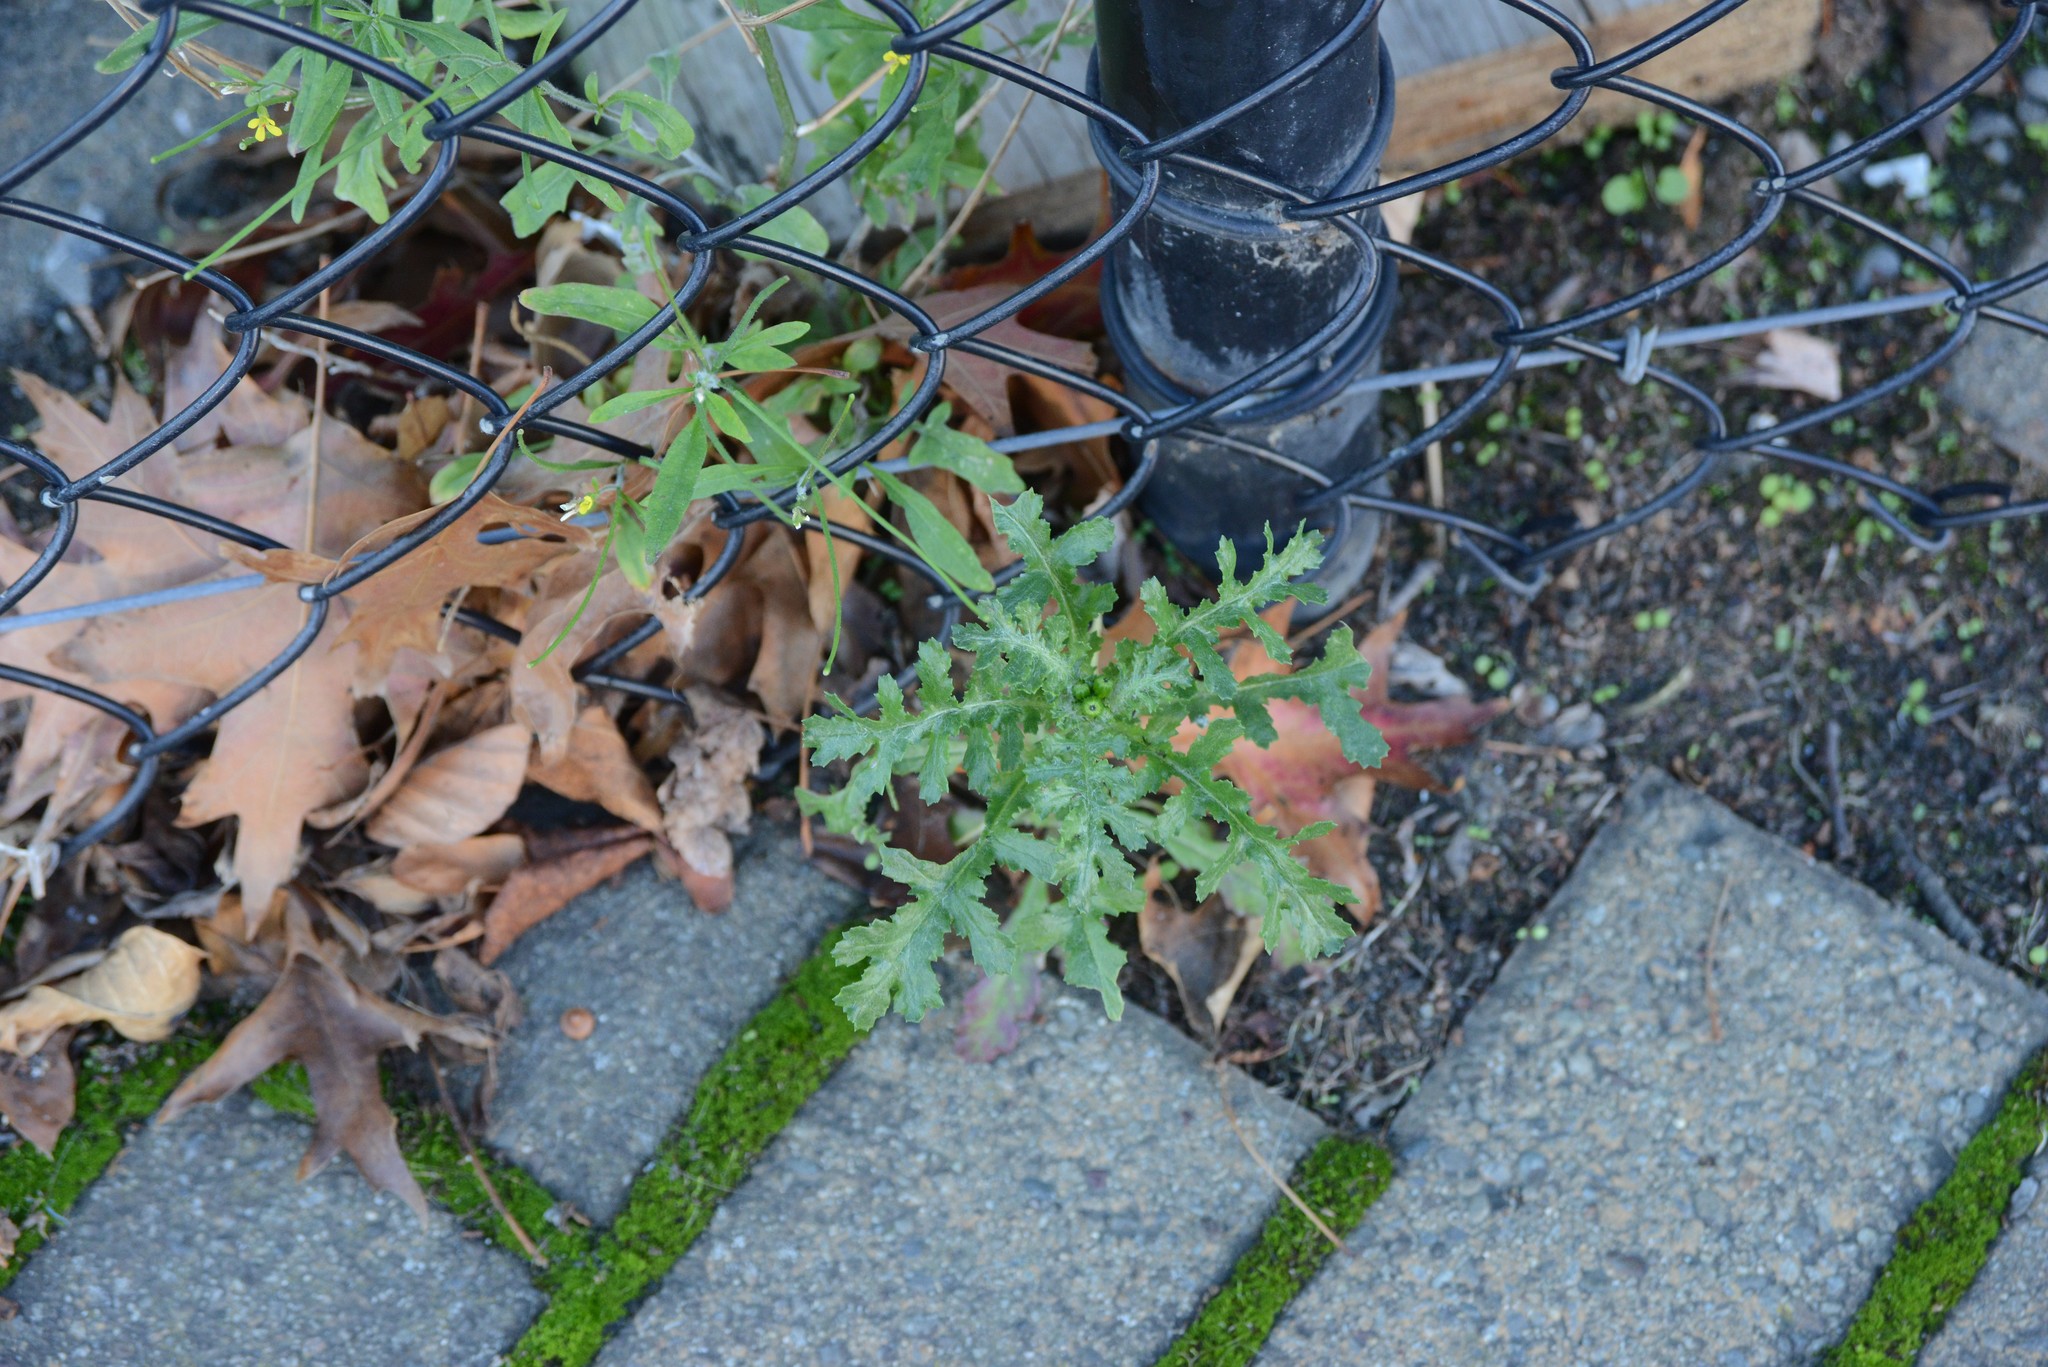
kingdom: Plantae
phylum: Tracheophyta
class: Magnoliopsida
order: Asterales
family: Asteraceae
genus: Senecio
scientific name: Senecio vulgaris
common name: Old-man-in-the-spring
